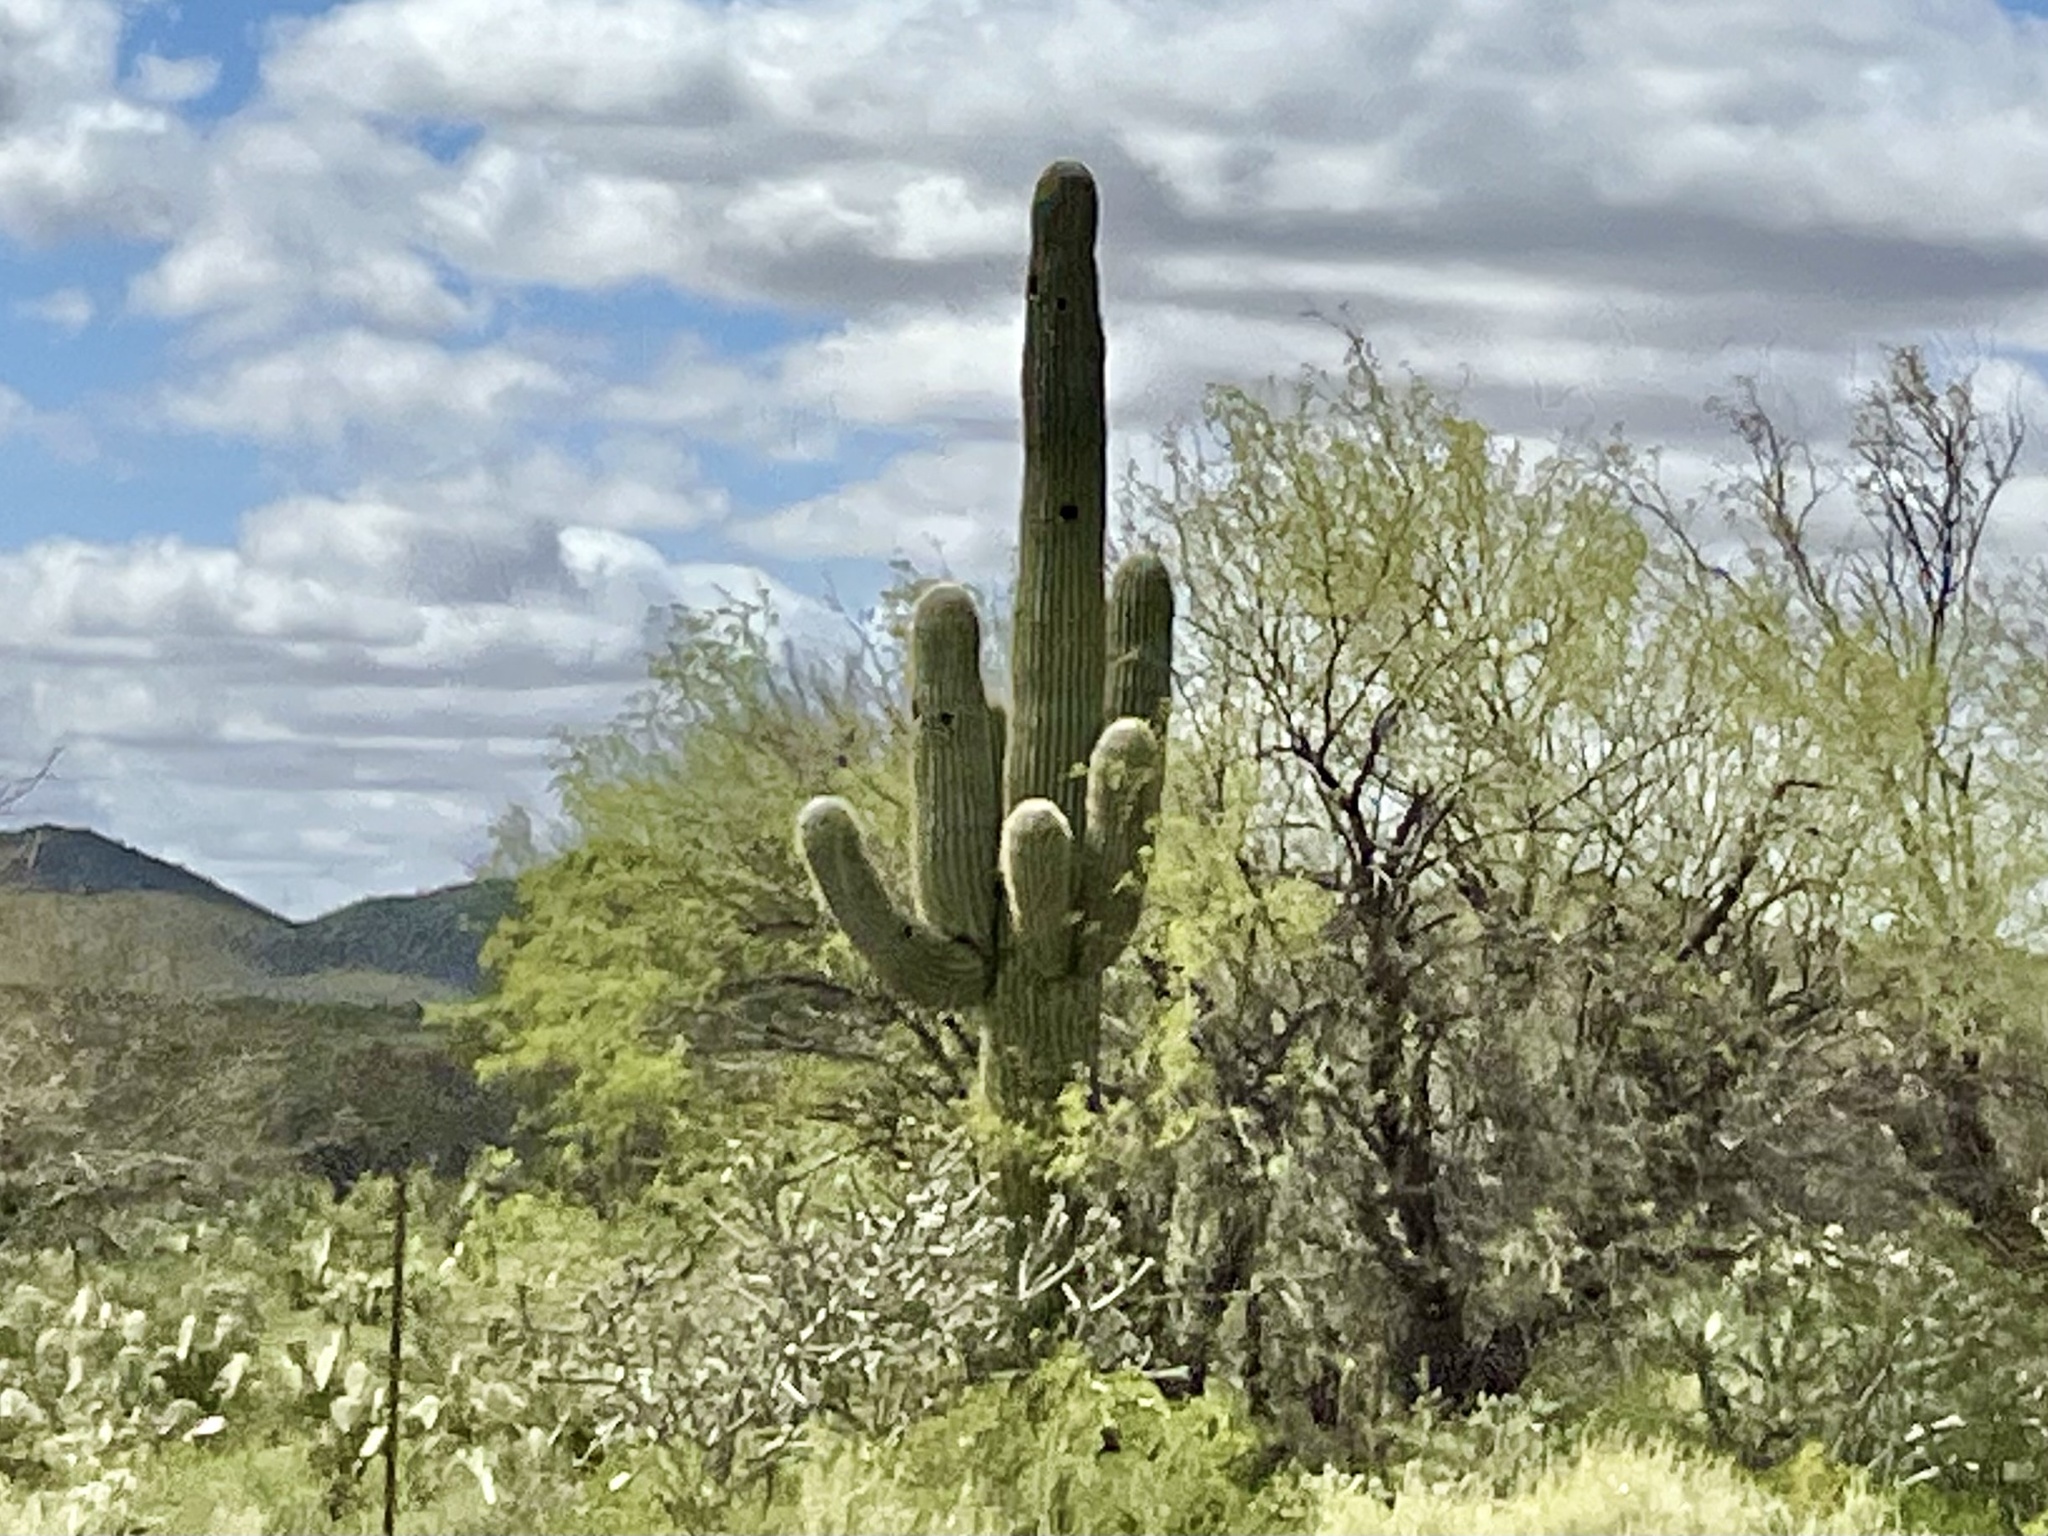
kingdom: Plantae
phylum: Tracheophyta
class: Magnoliopsida
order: Caryophyllales
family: Cactaceae
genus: Carnegiea
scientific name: Carnegiea gigantea
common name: Saguaro
